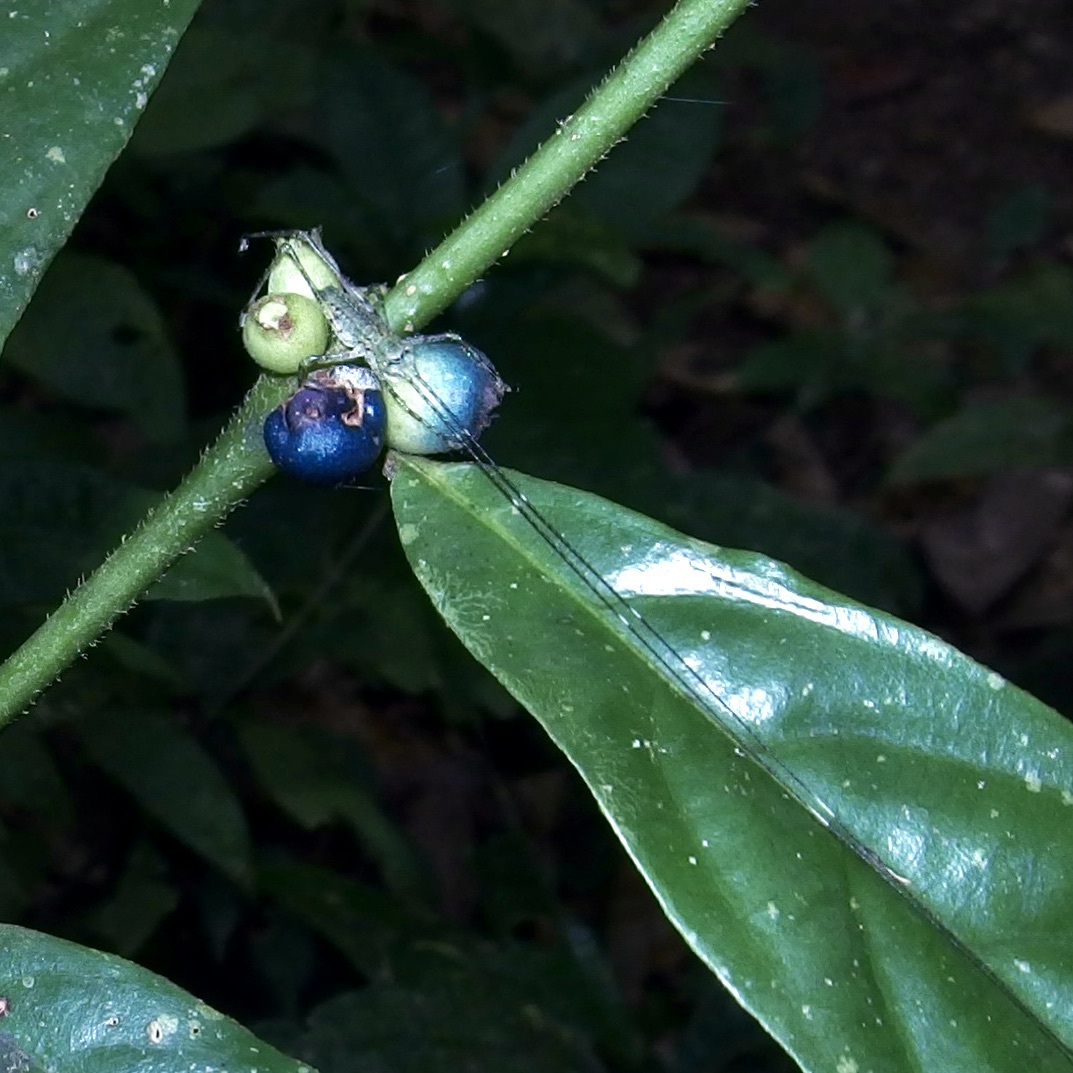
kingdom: Animalia
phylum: Arthropoda
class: Insecta
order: Orthoptera
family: Tettigoniidae
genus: Phricta
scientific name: Phricta spinosa
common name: Giant spiny forest katydid
